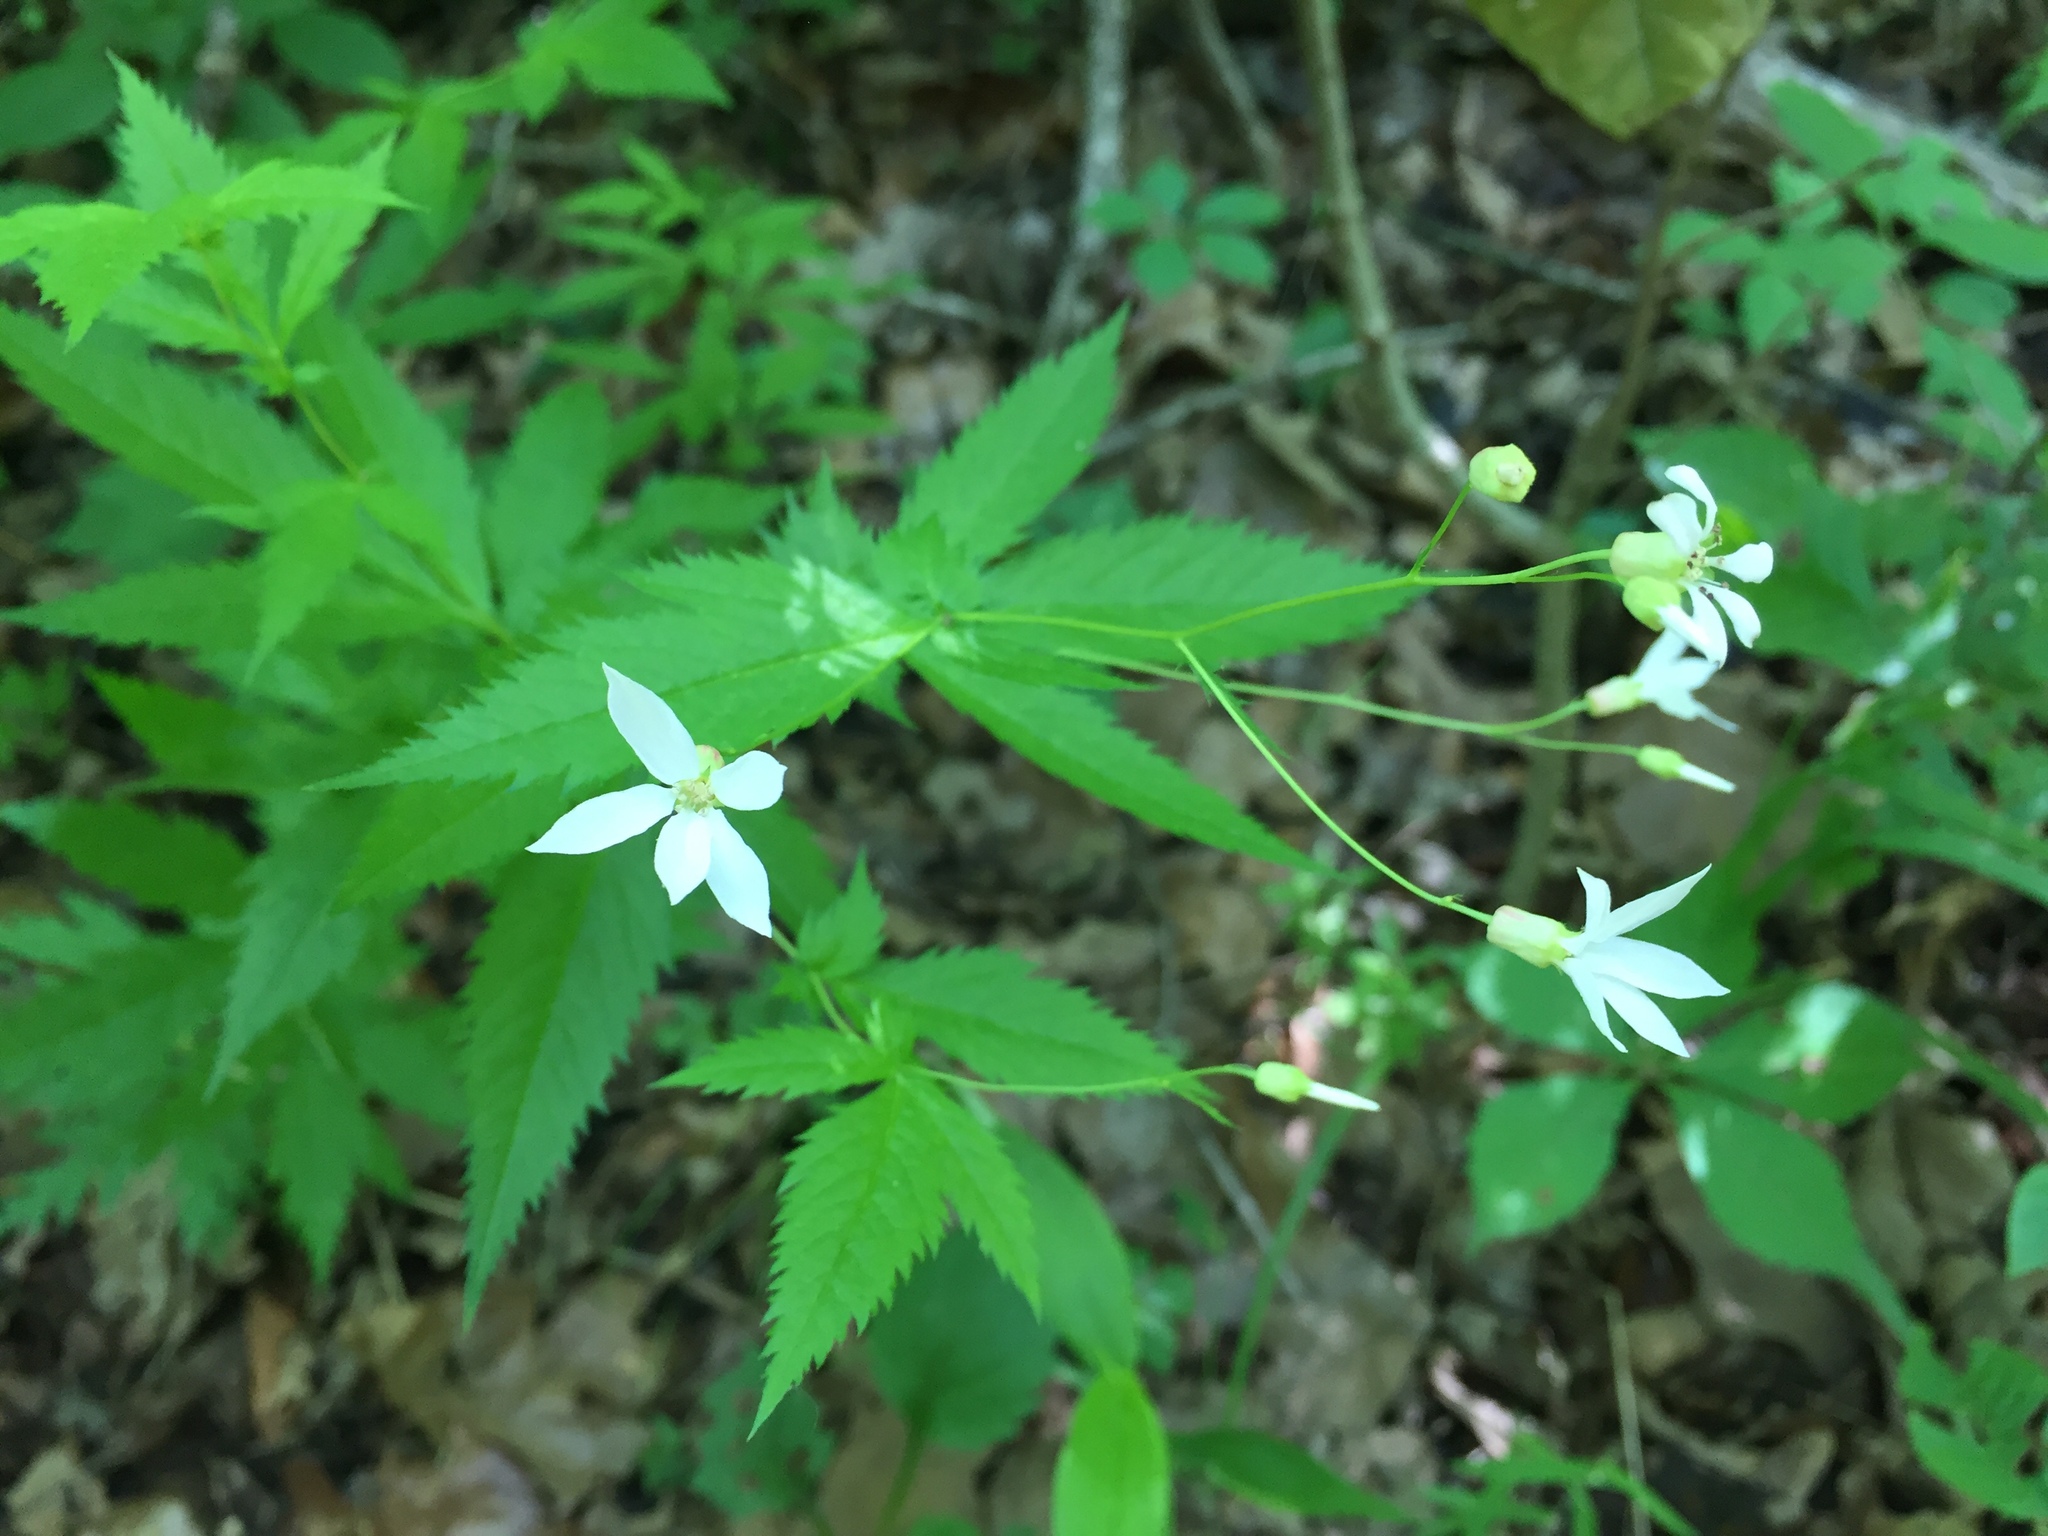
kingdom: Plantae
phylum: Tracheophyta
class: Magnoliopsida
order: Rosales
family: Rosaceae
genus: Gillenia
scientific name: Gillenia stipulata
